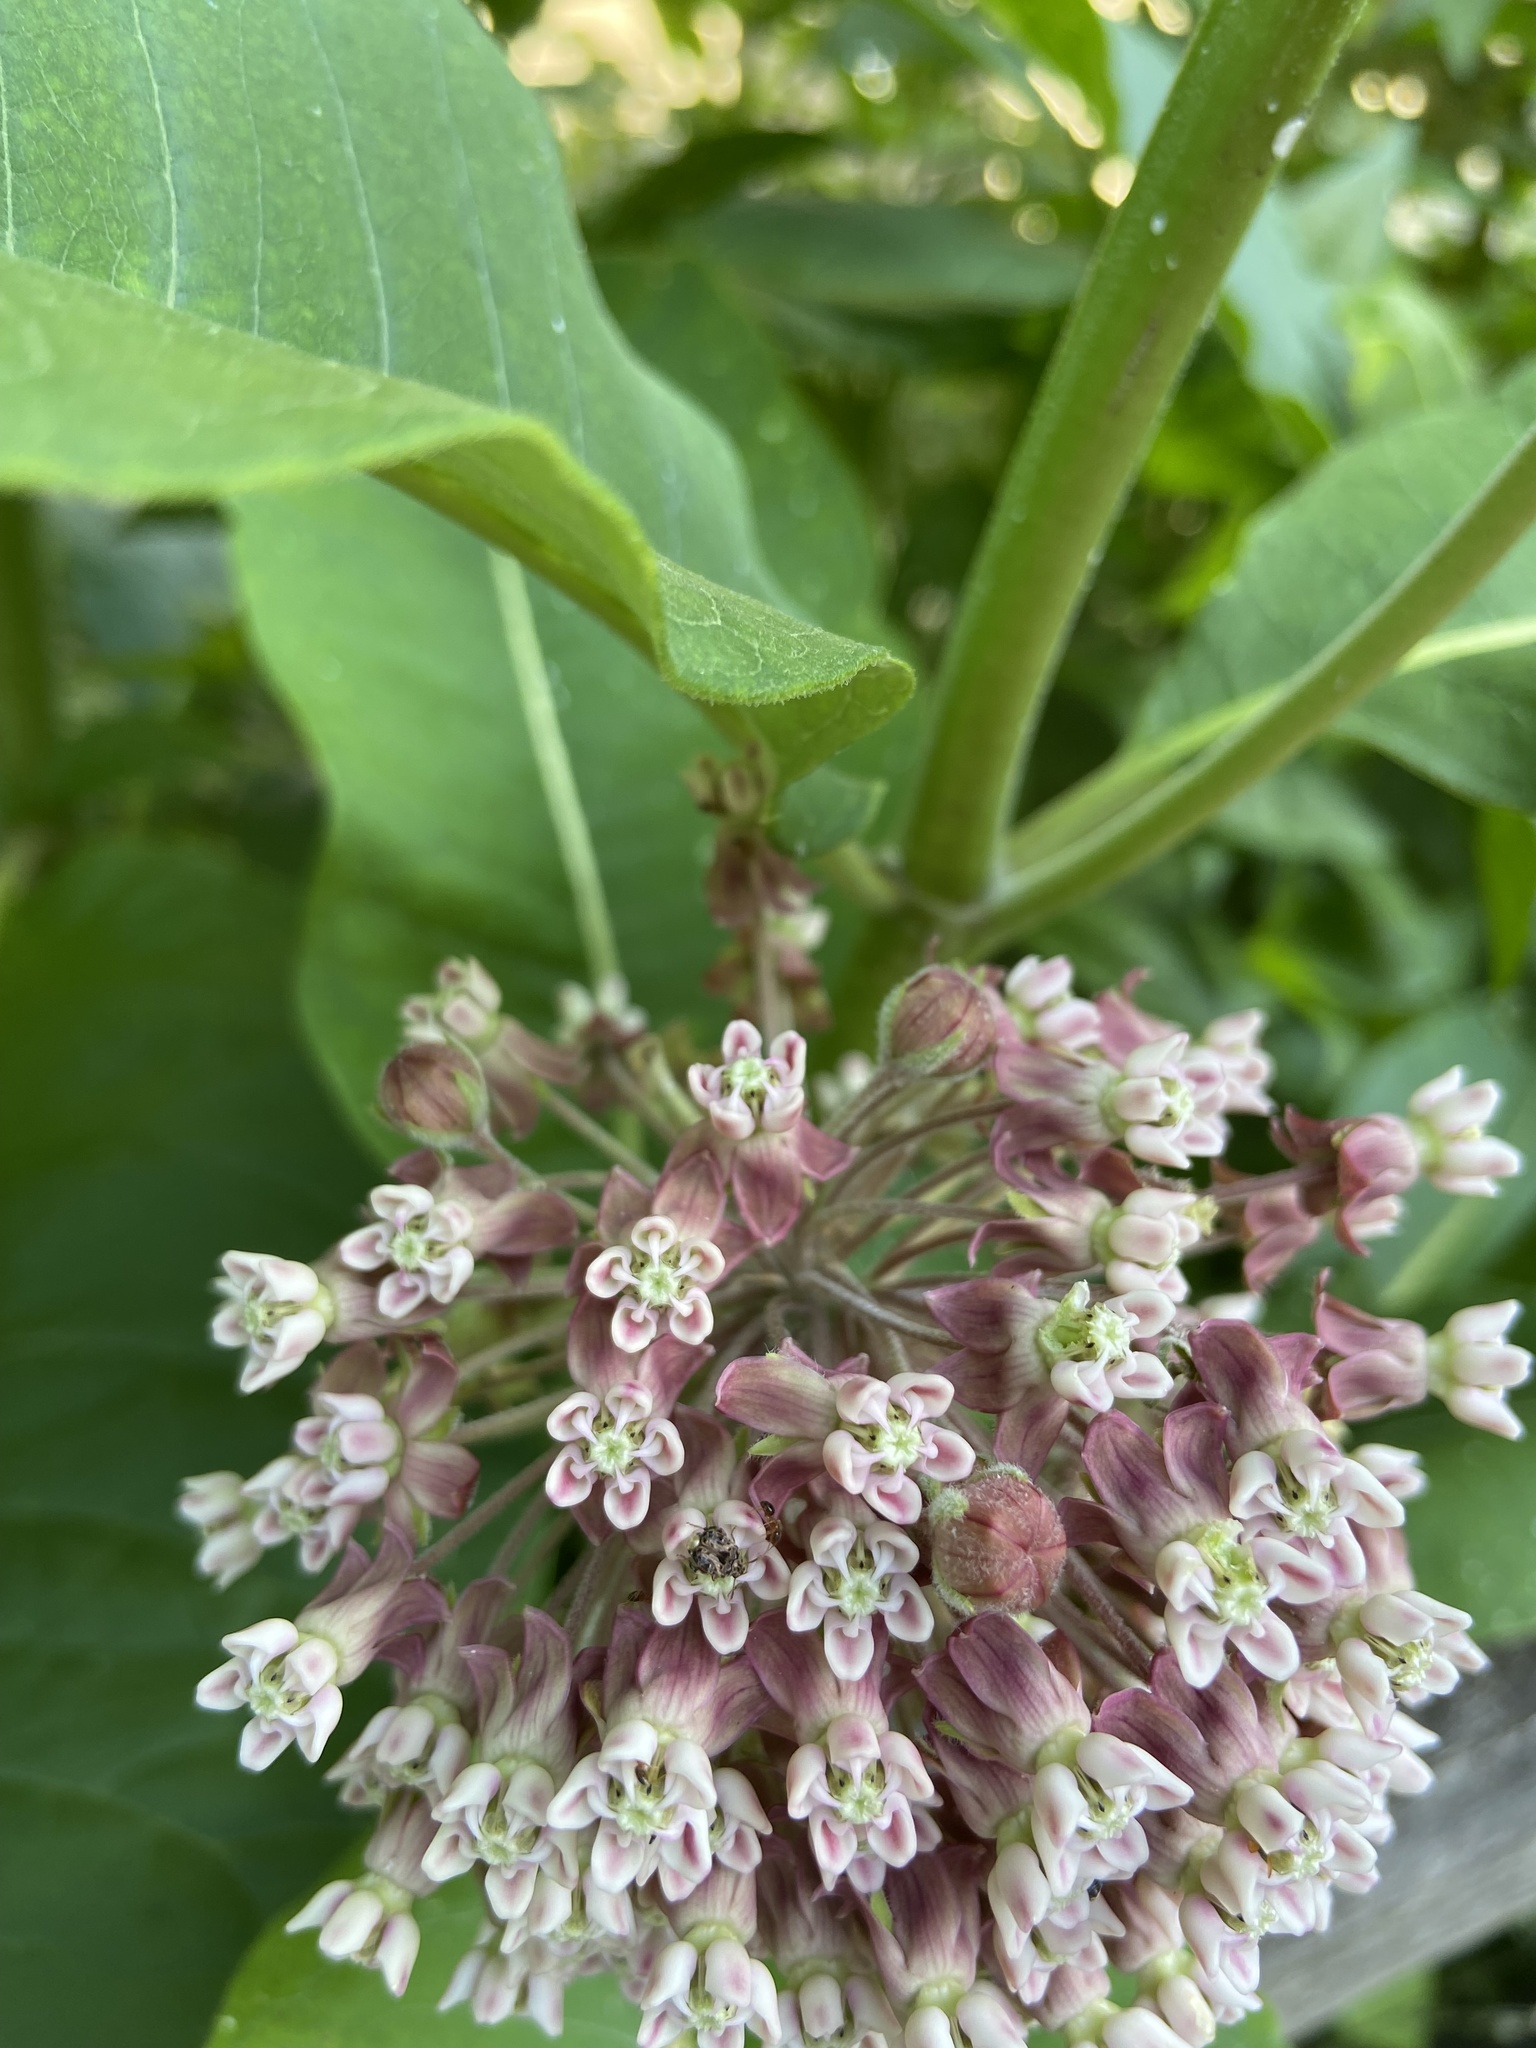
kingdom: Plantae
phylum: Tracheophyta
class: Magnoliopsida
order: Gentianales
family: Apocynaceae
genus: Asclepias
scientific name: Asclepias syriaca
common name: Common milkweed
